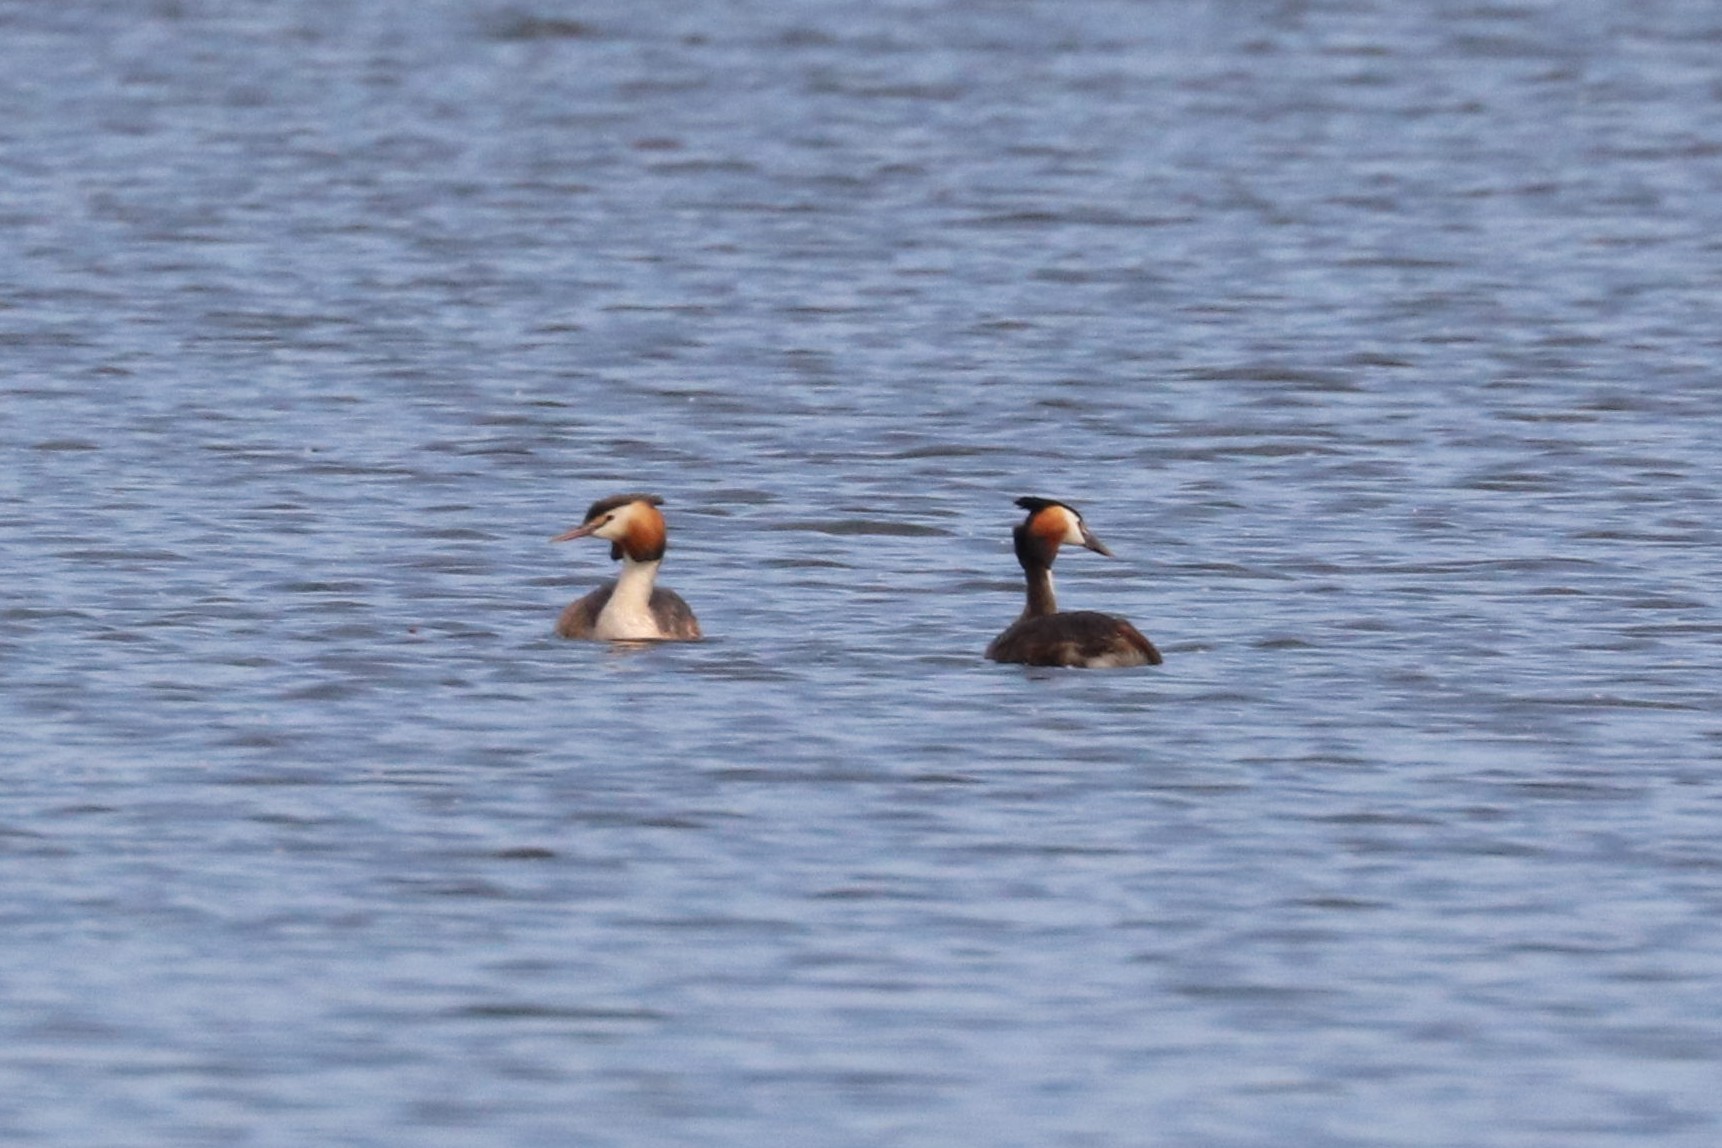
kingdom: Animalia
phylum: Chordata
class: Aves
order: Podicipediformes
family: Podicipedidae
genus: Podiceps
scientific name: Podiceps cristatus
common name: Great crested grebe
